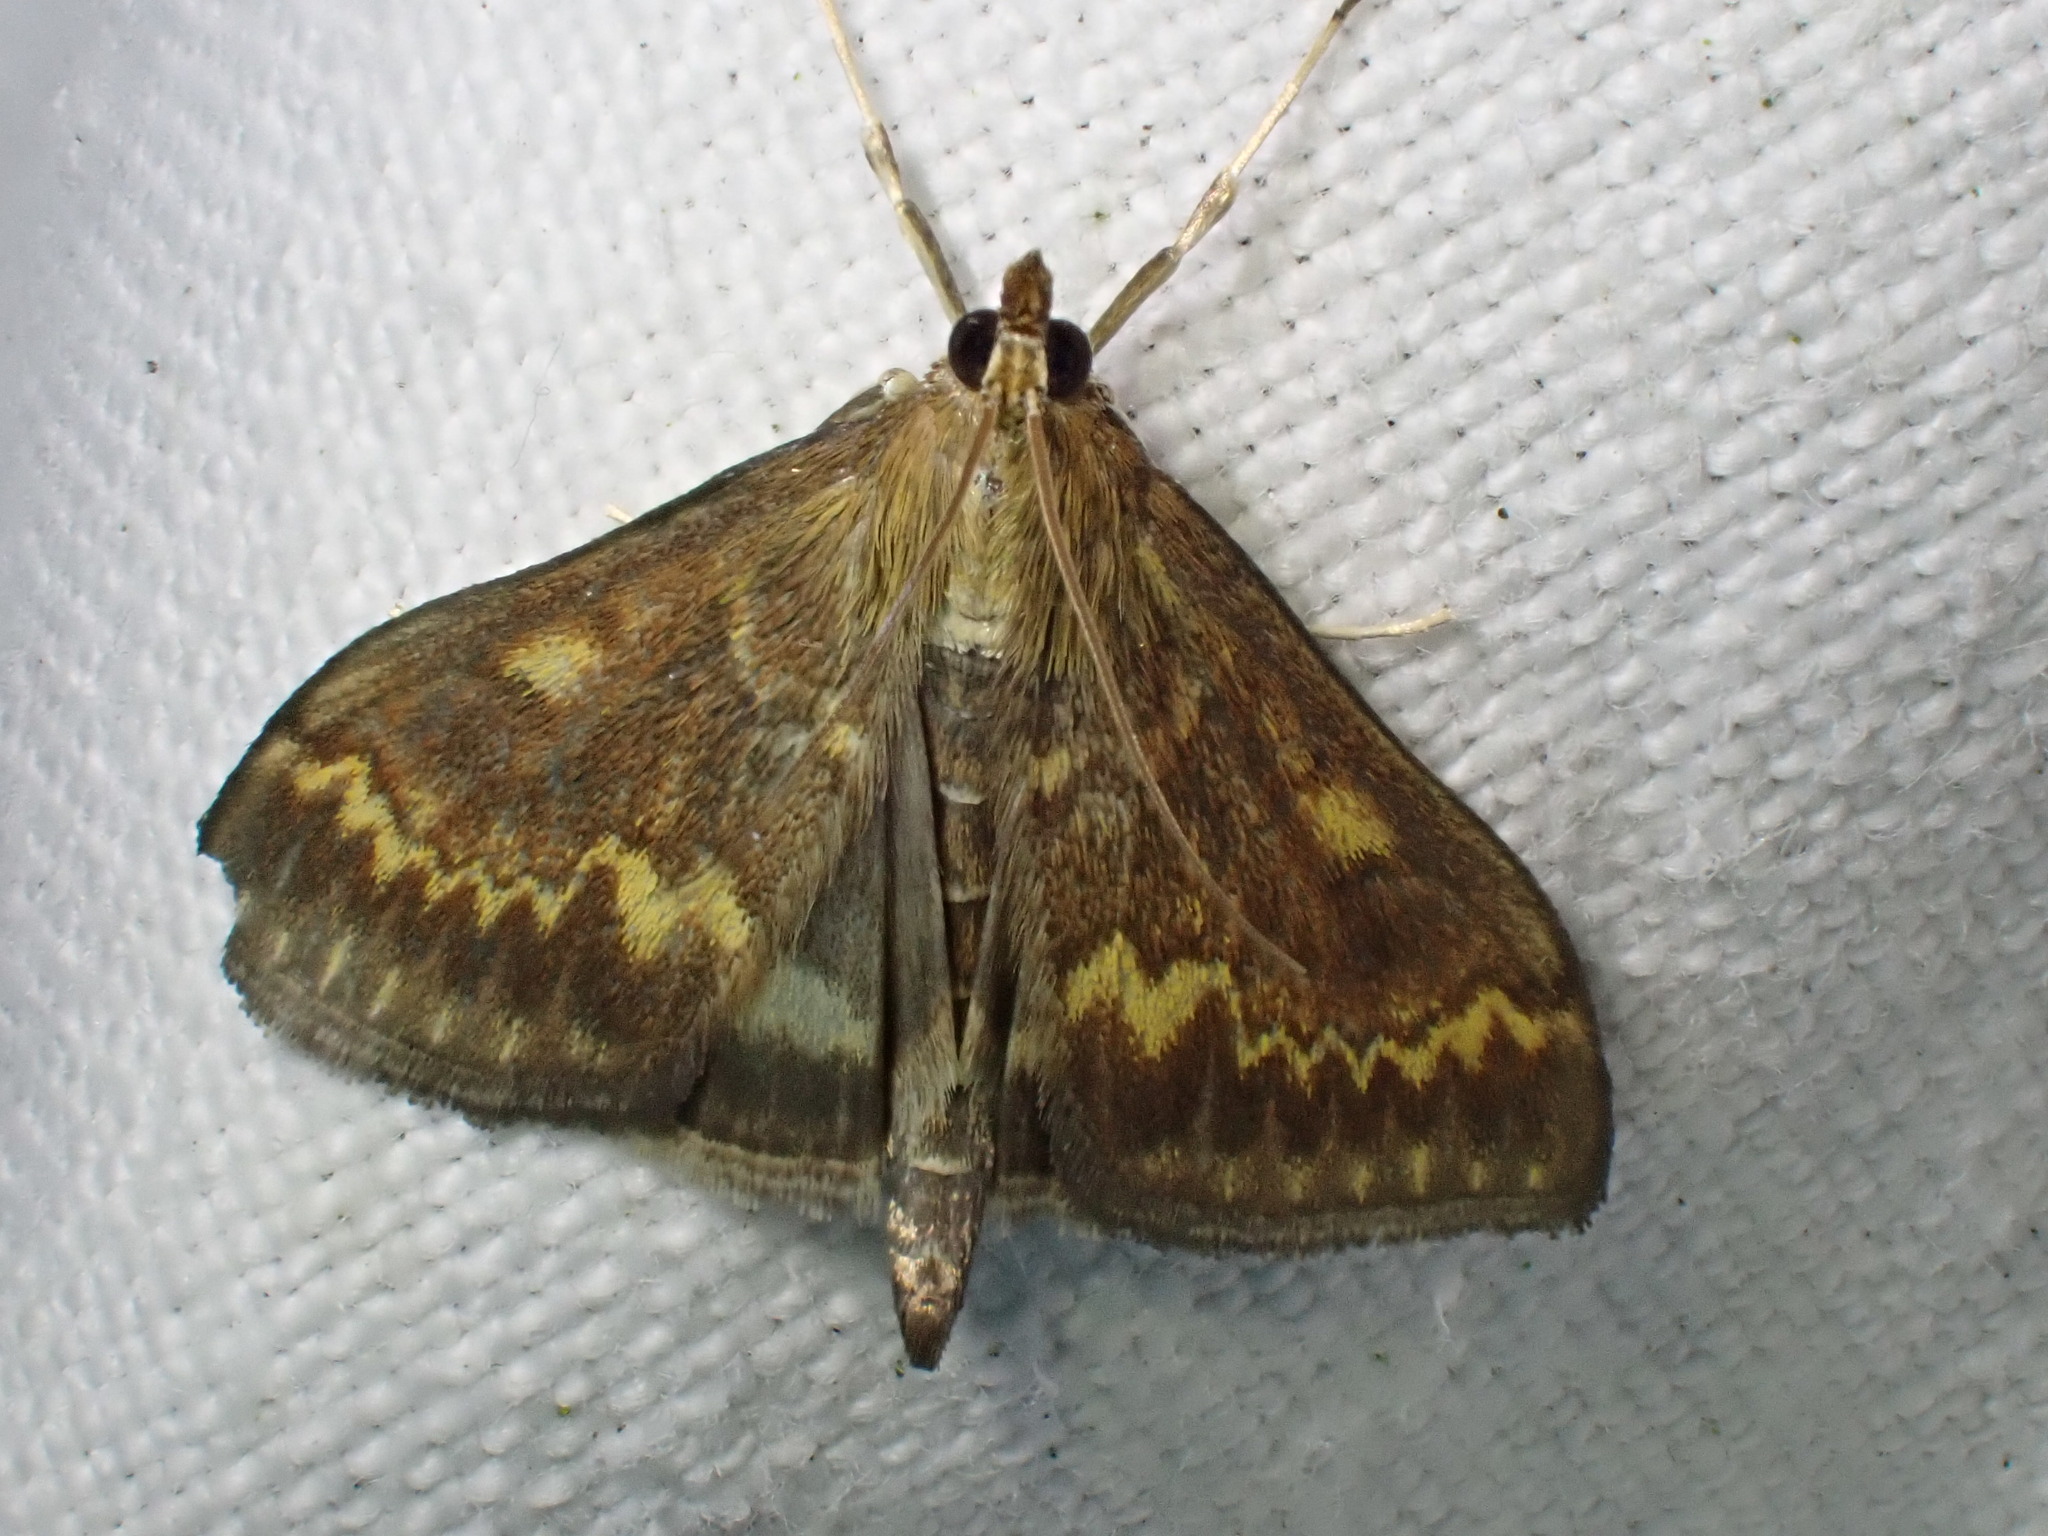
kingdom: Animalia
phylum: Arthropoda
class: Insecta
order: Lepidoptera
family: Crambidae
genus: Ostrinia
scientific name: Ostrinia nubilalis
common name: European corn borer
